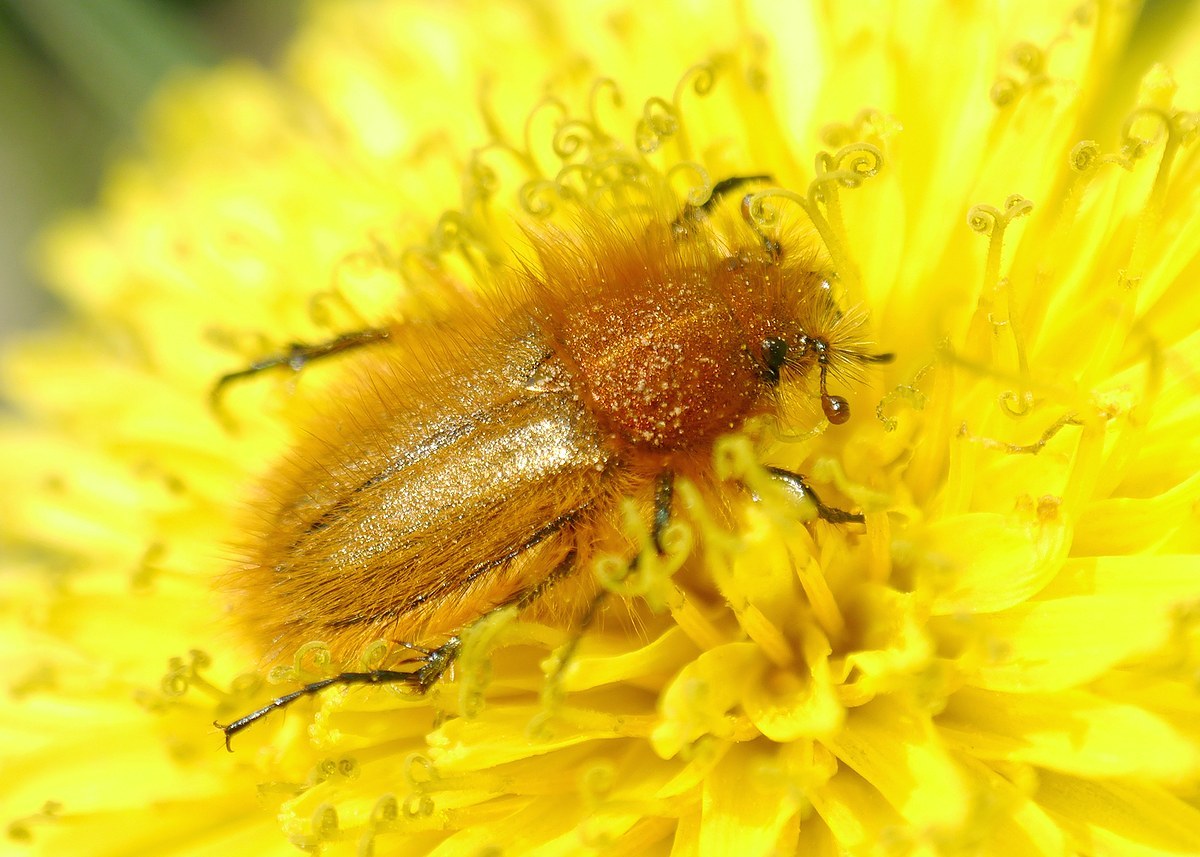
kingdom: Animalia
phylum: Arthropoda
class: Insecta
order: Coleoptera
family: Glaphyridae
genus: Pygopleurus
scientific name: Pygopleurus vulpes
